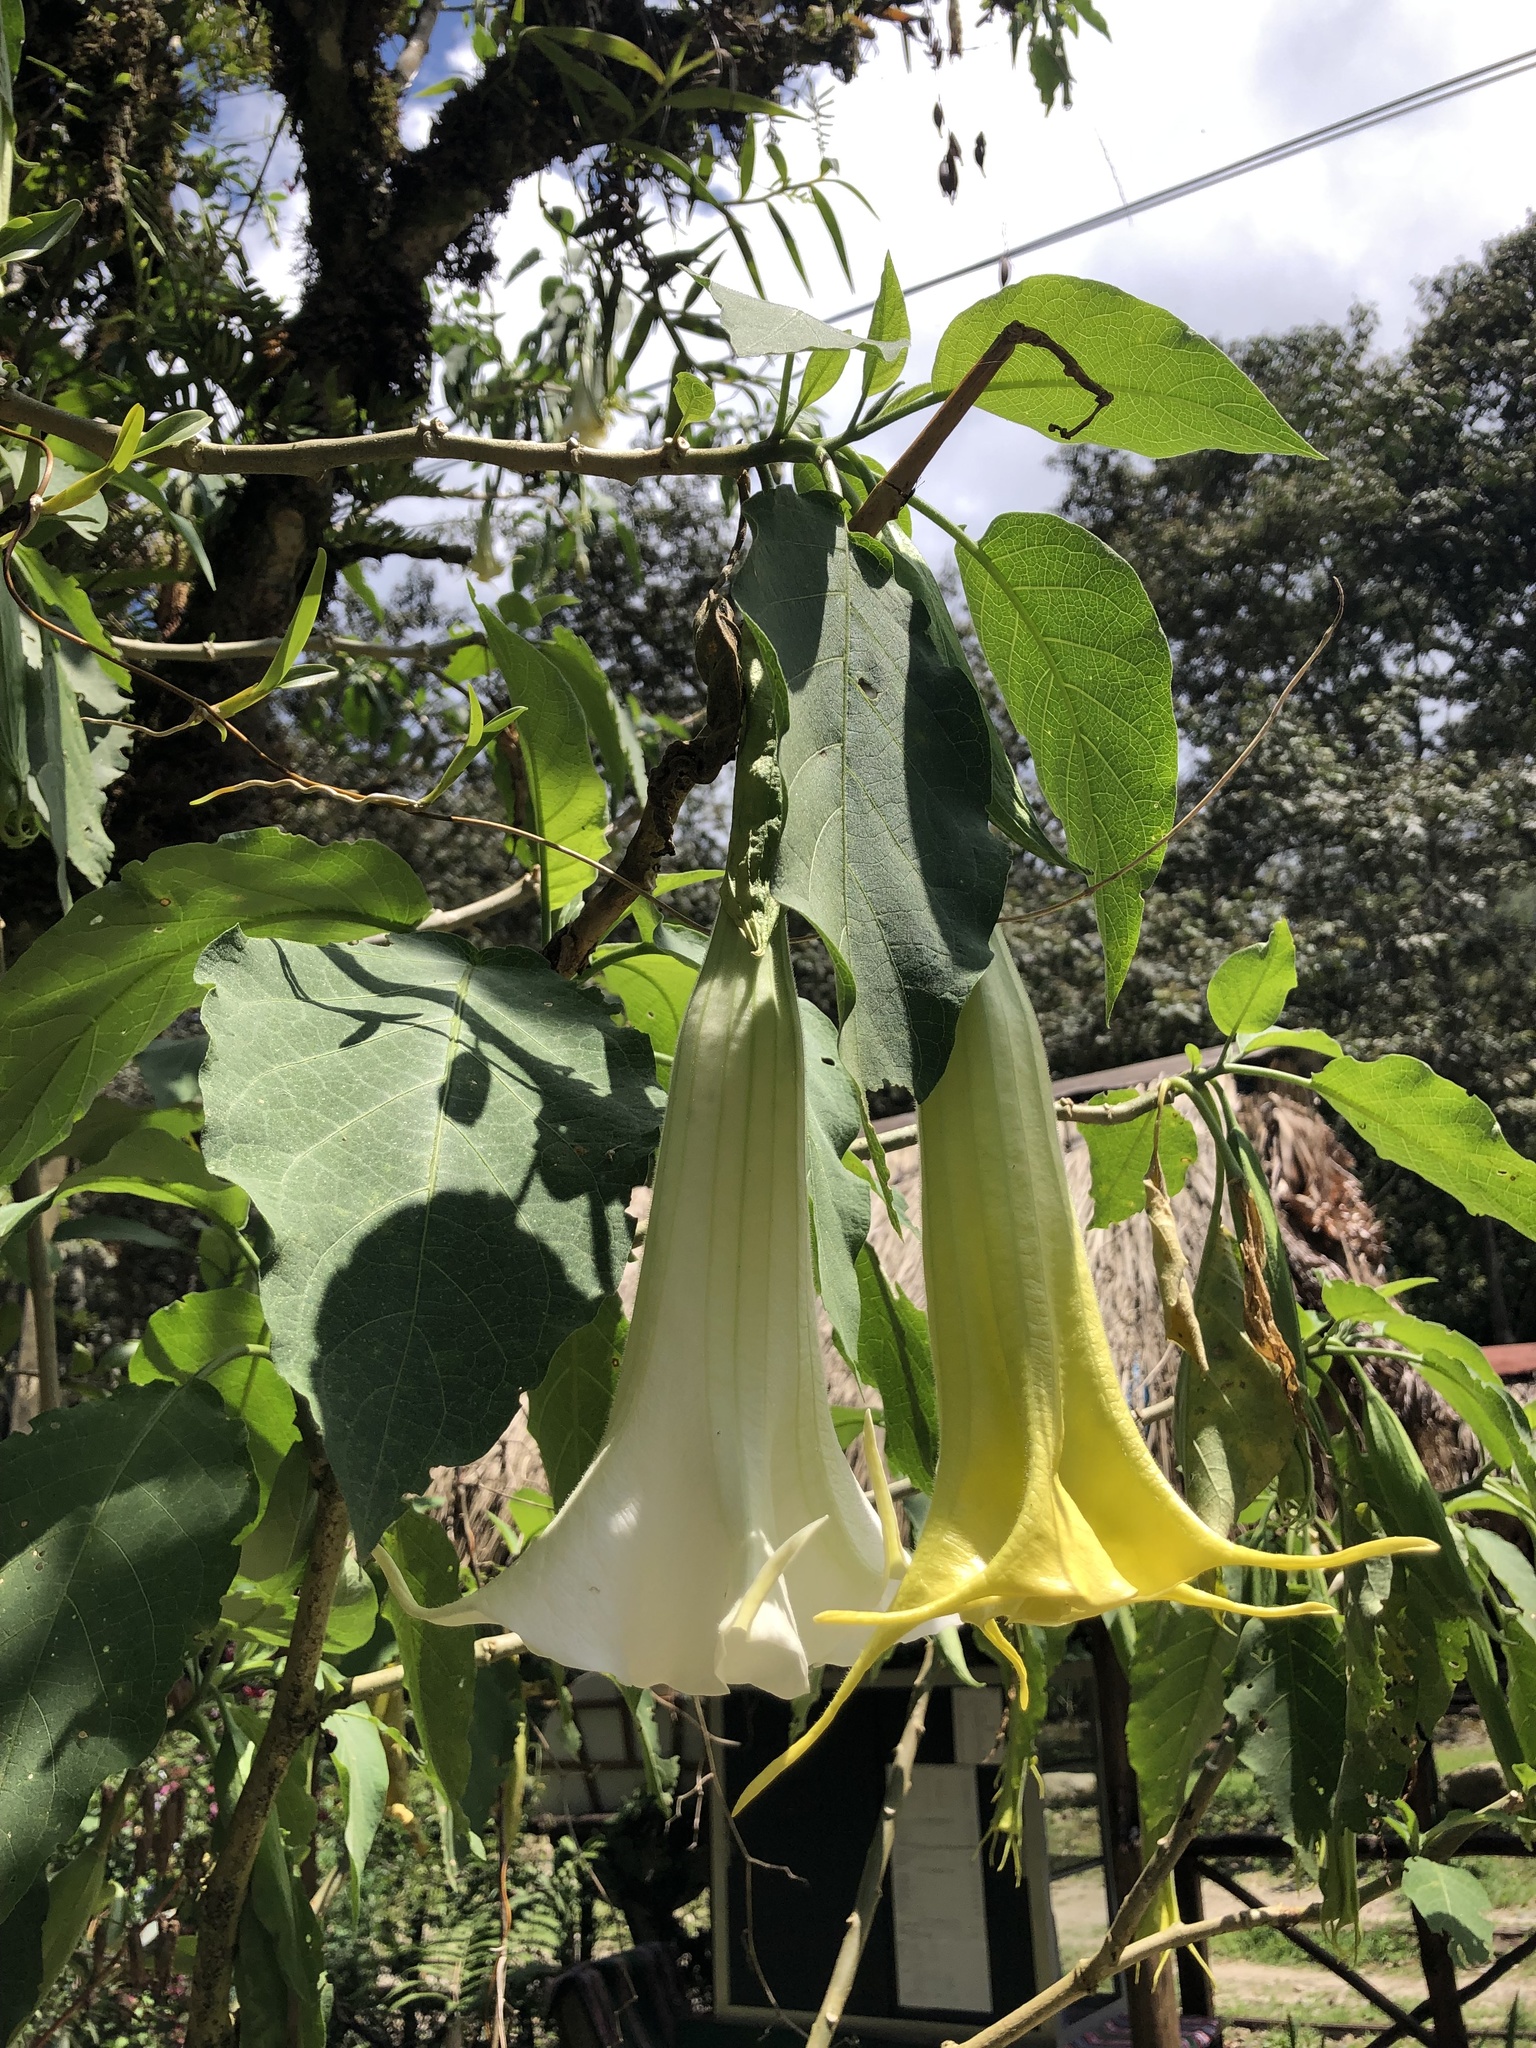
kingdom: Plantae
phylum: Tracheophyta
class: Magnoliopsida
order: Solanales
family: Solanaceae
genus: Brugmansia
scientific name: Brugmansia arborea
